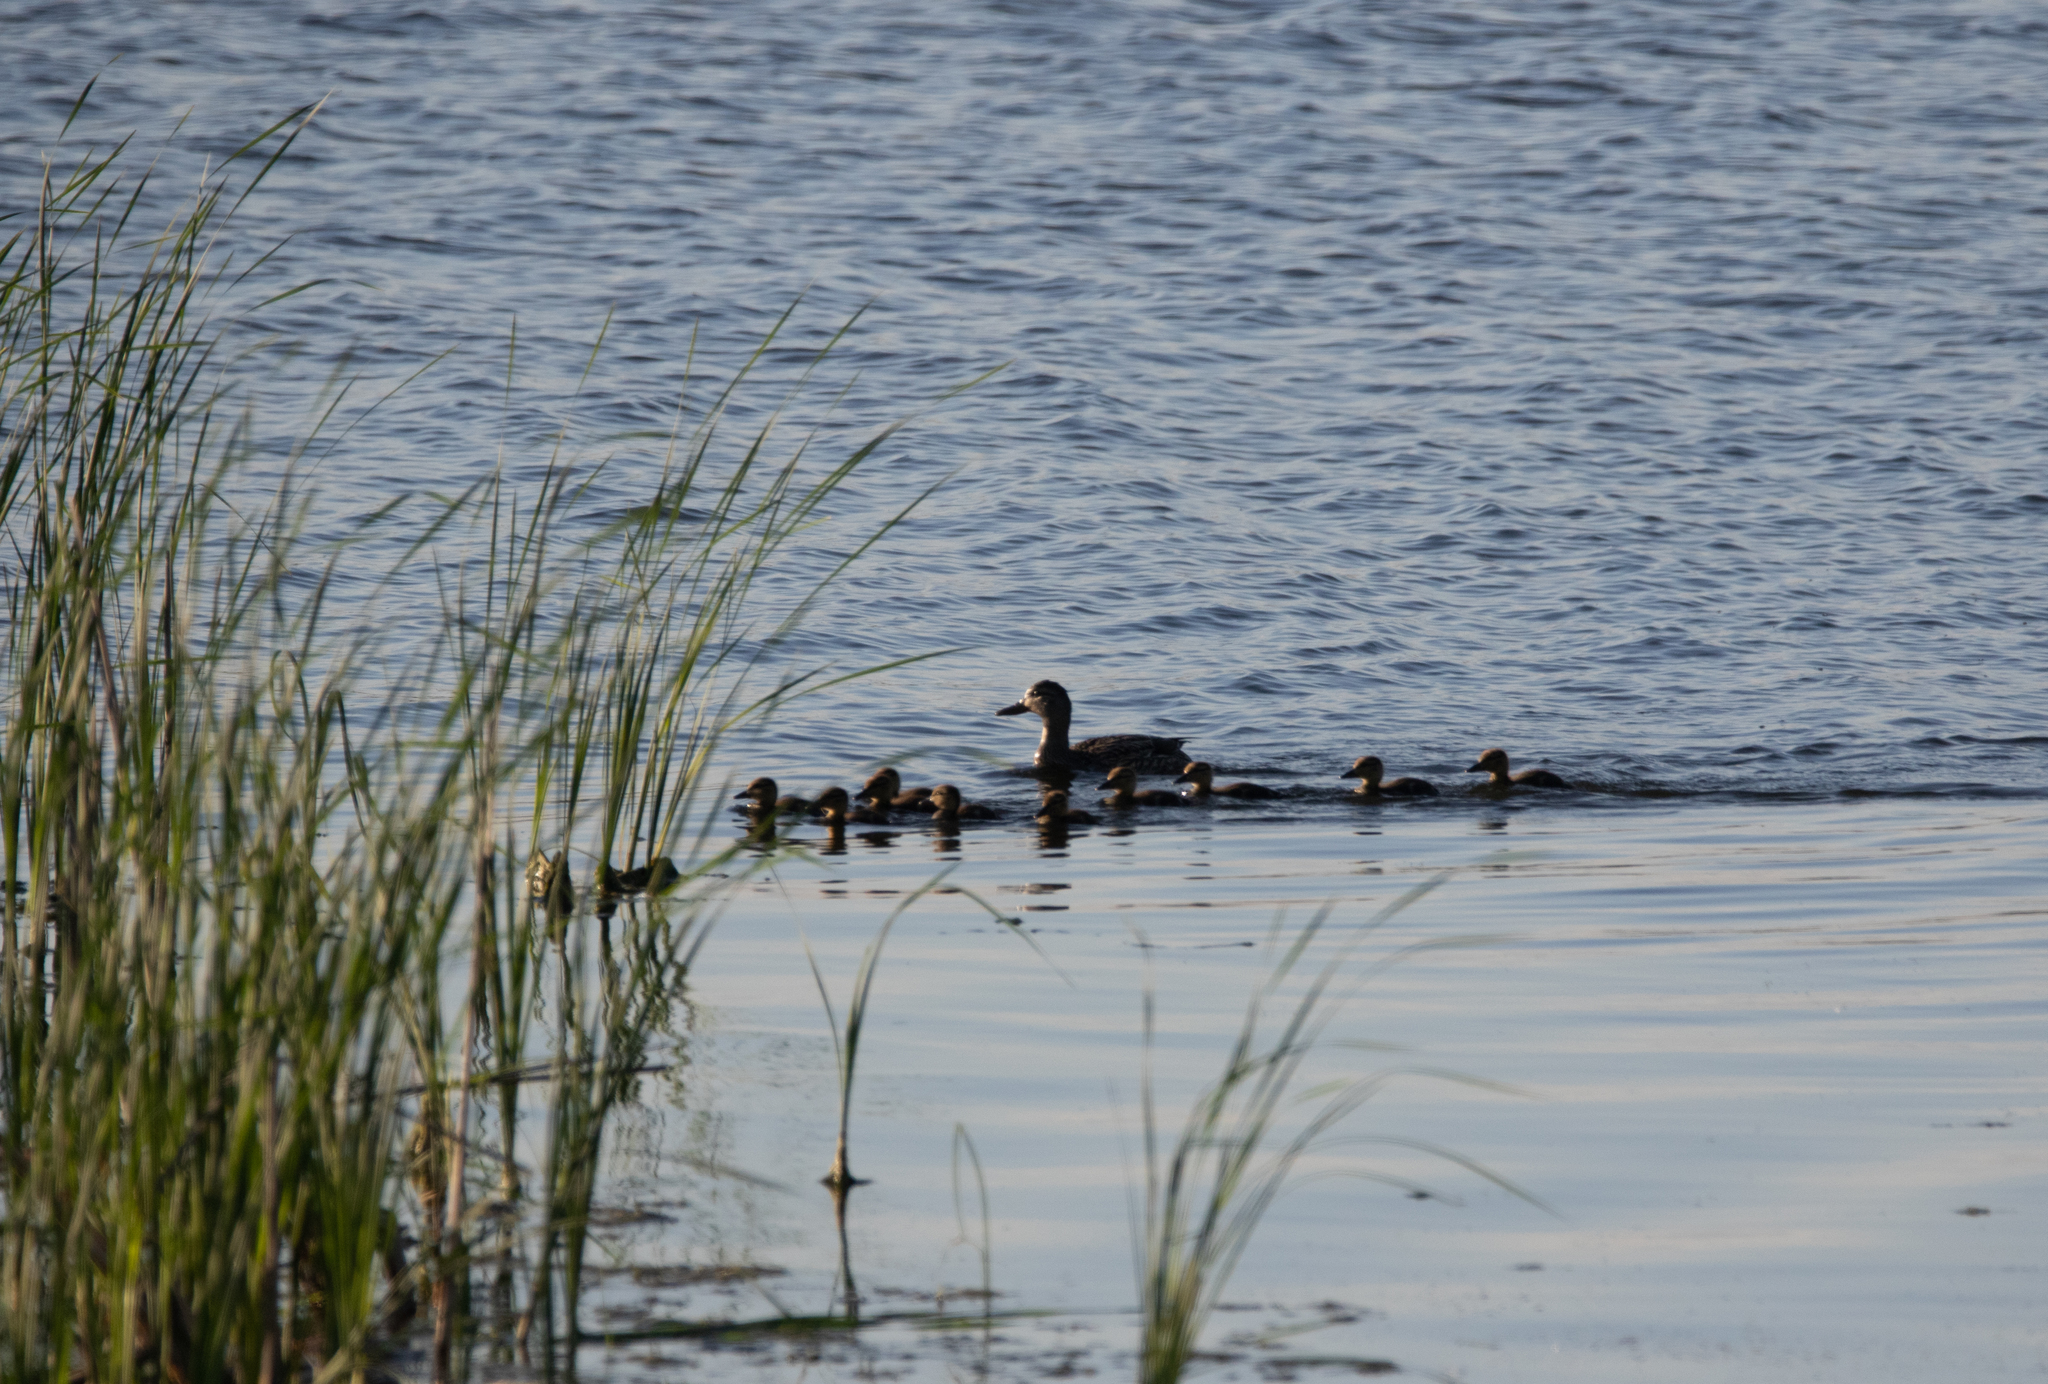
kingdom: Animalia
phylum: Chordata
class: Aves
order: Anseriformes
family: Anatidae
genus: Anas
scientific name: Anas platyrhynchos
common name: Mallard
